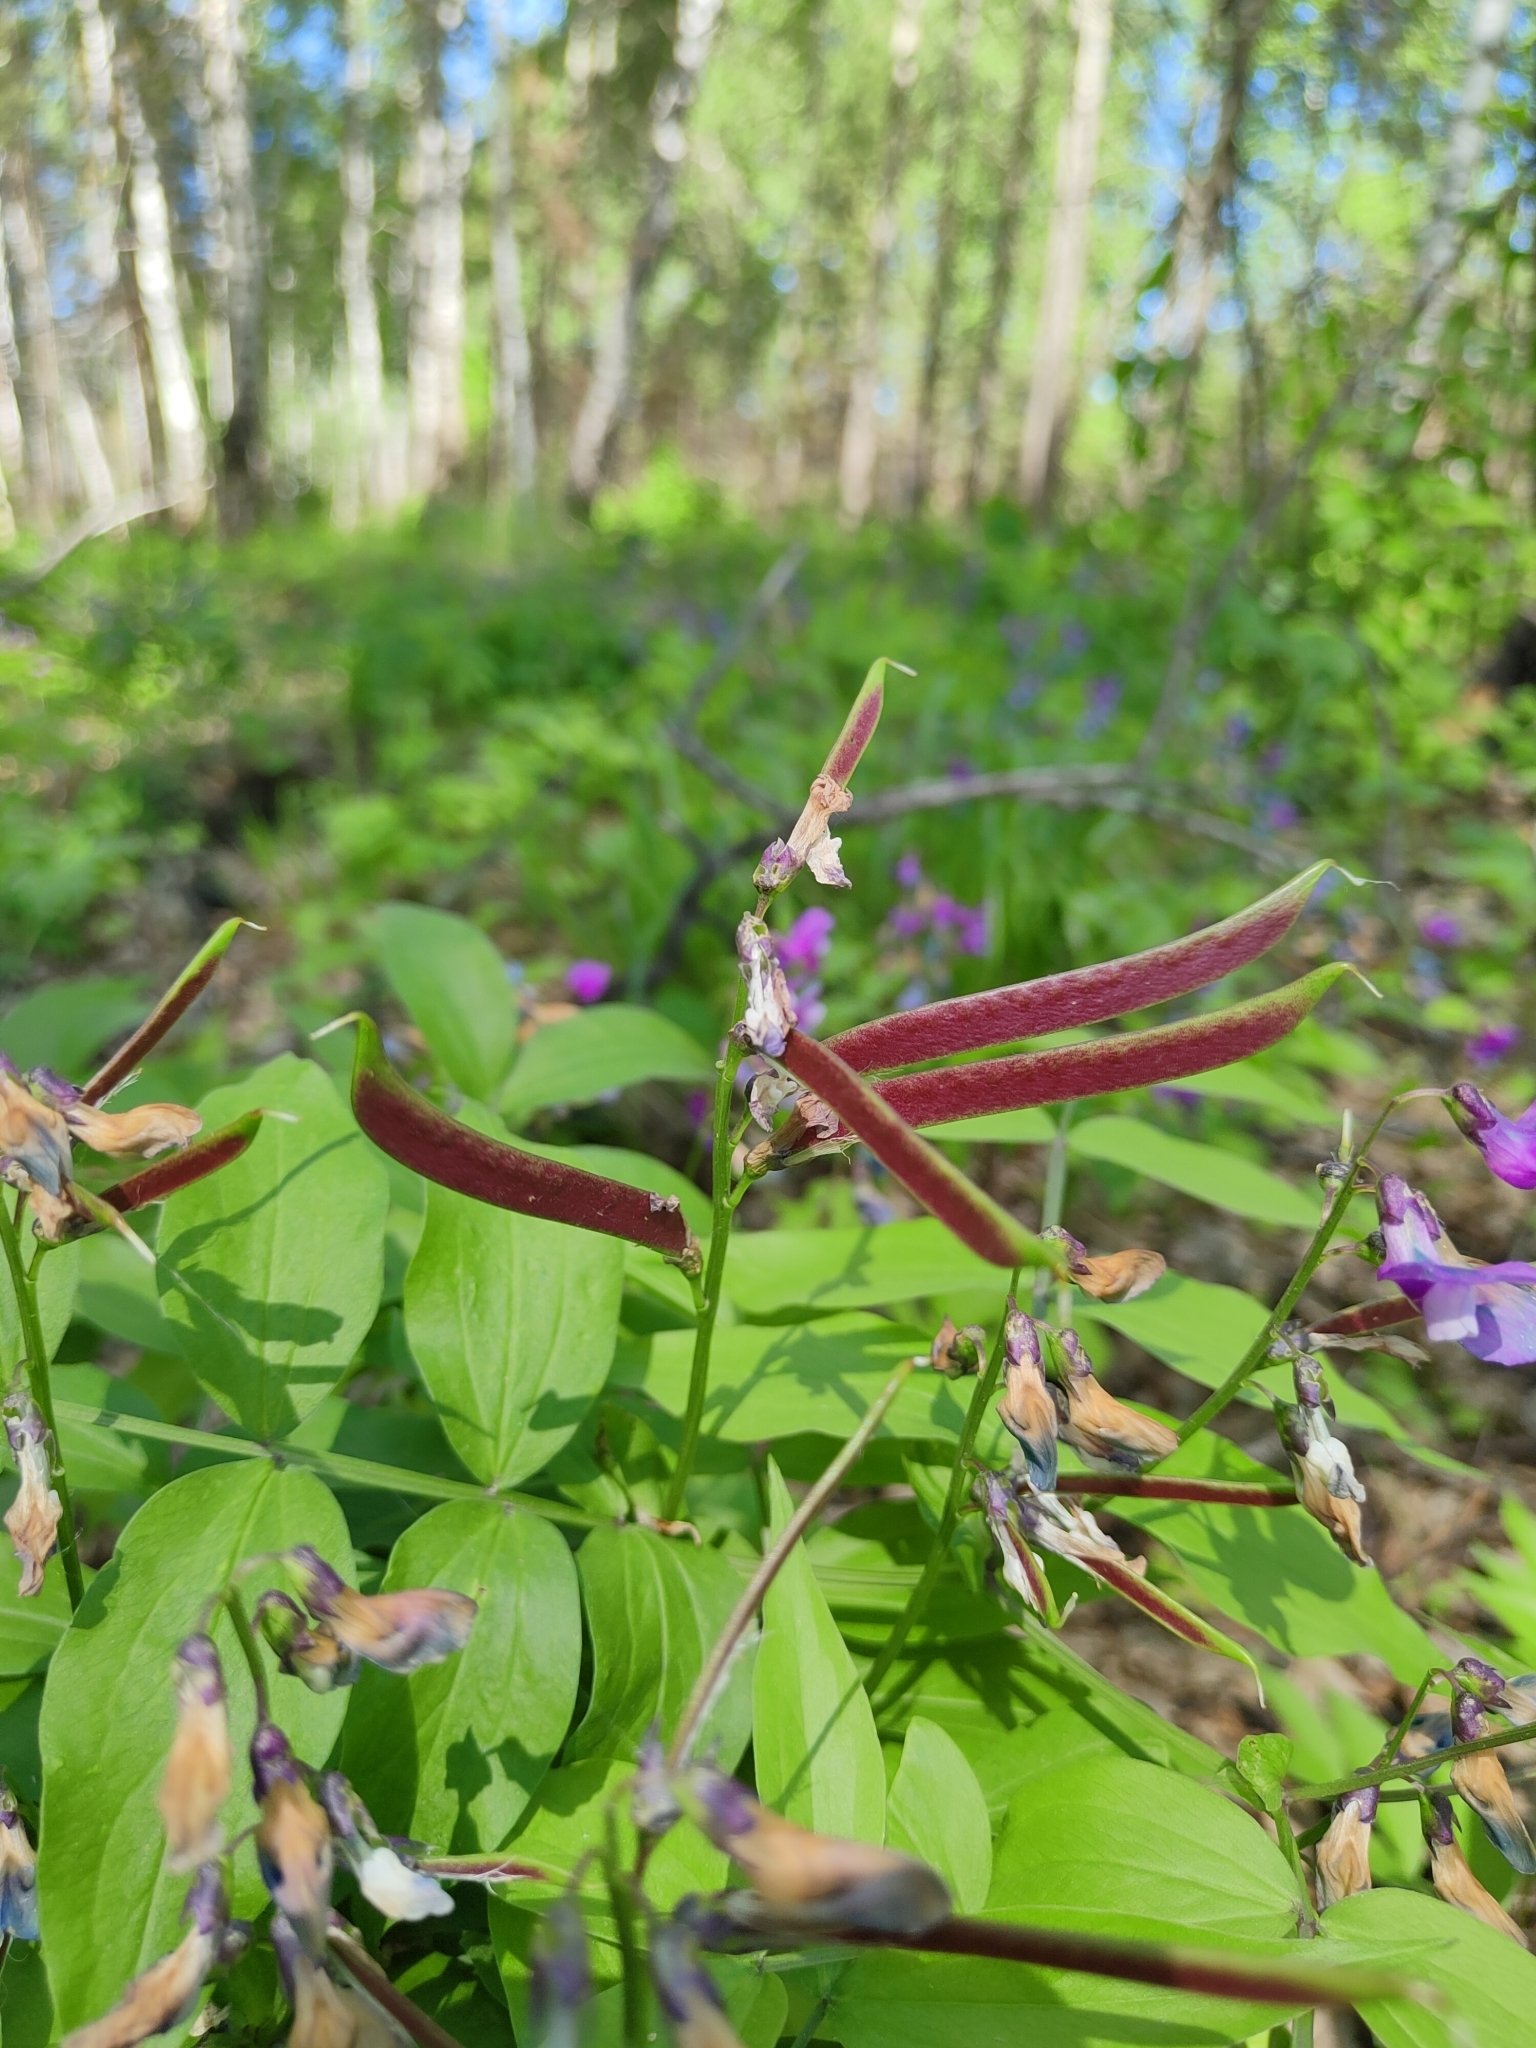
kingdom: Plantae
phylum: Tracheophyta
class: Magnoliopsida
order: Fabales
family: Fabaceae
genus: Lathyrus
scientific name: Lathyrus vernus
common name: Spring pea
